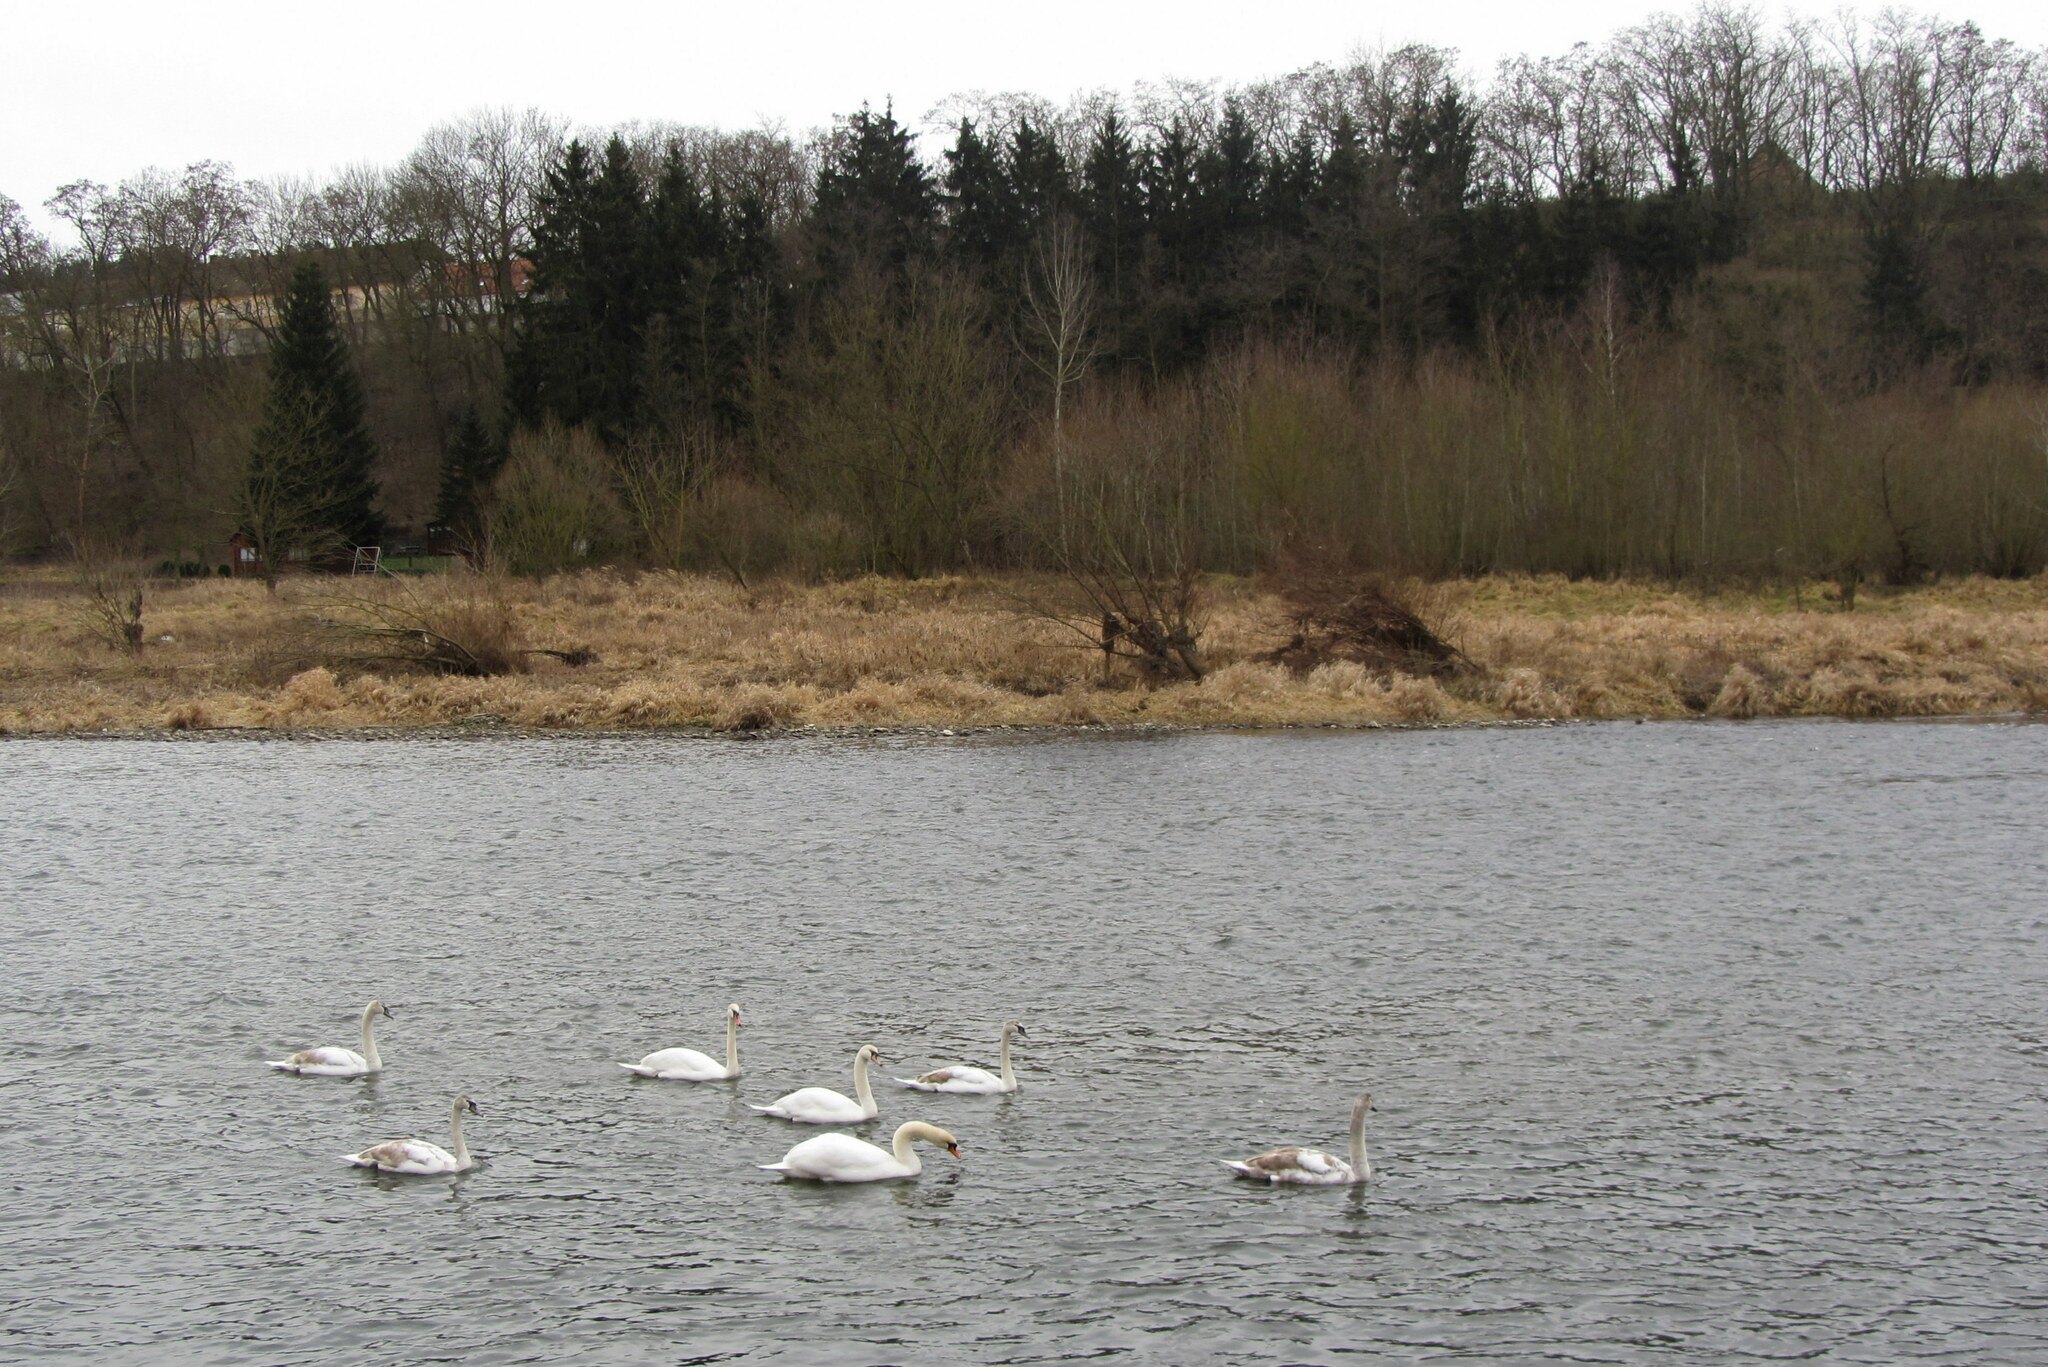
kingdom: Animalia
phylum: Chordata
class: Aves
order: Anseriformes
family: Anatidae
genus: Cygnus
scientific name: Cygnus olor
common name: Mute swan
